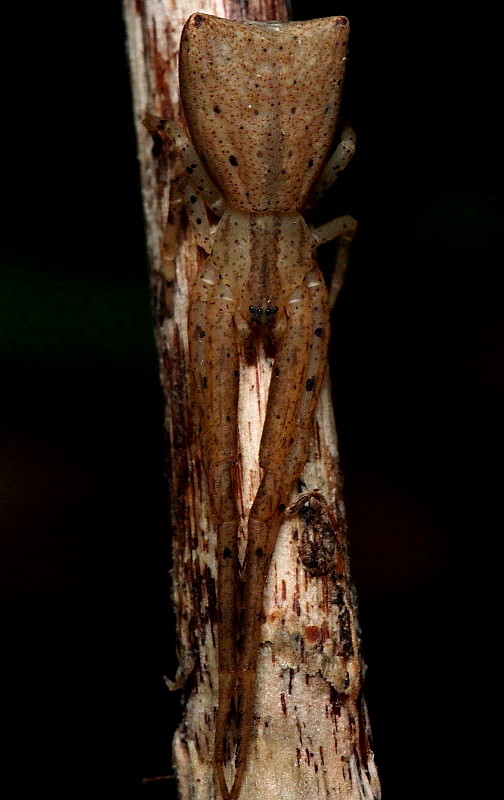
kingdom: Animalia
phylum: Arthropoda
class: Arachnida
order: Araneae
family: Thomisidae
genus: Sidymella
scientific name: Sidymella trapezia
